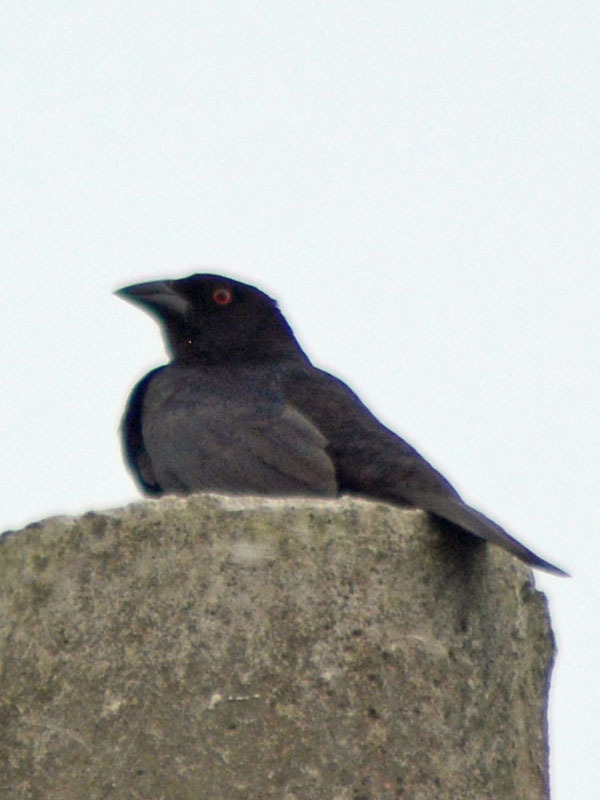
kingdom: Animalia
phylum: Chordata
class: Aves
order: Passeriformes
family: Icteridae
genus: Molothrus
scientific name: Molothrus aeneus
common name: Bronzed cowbird
